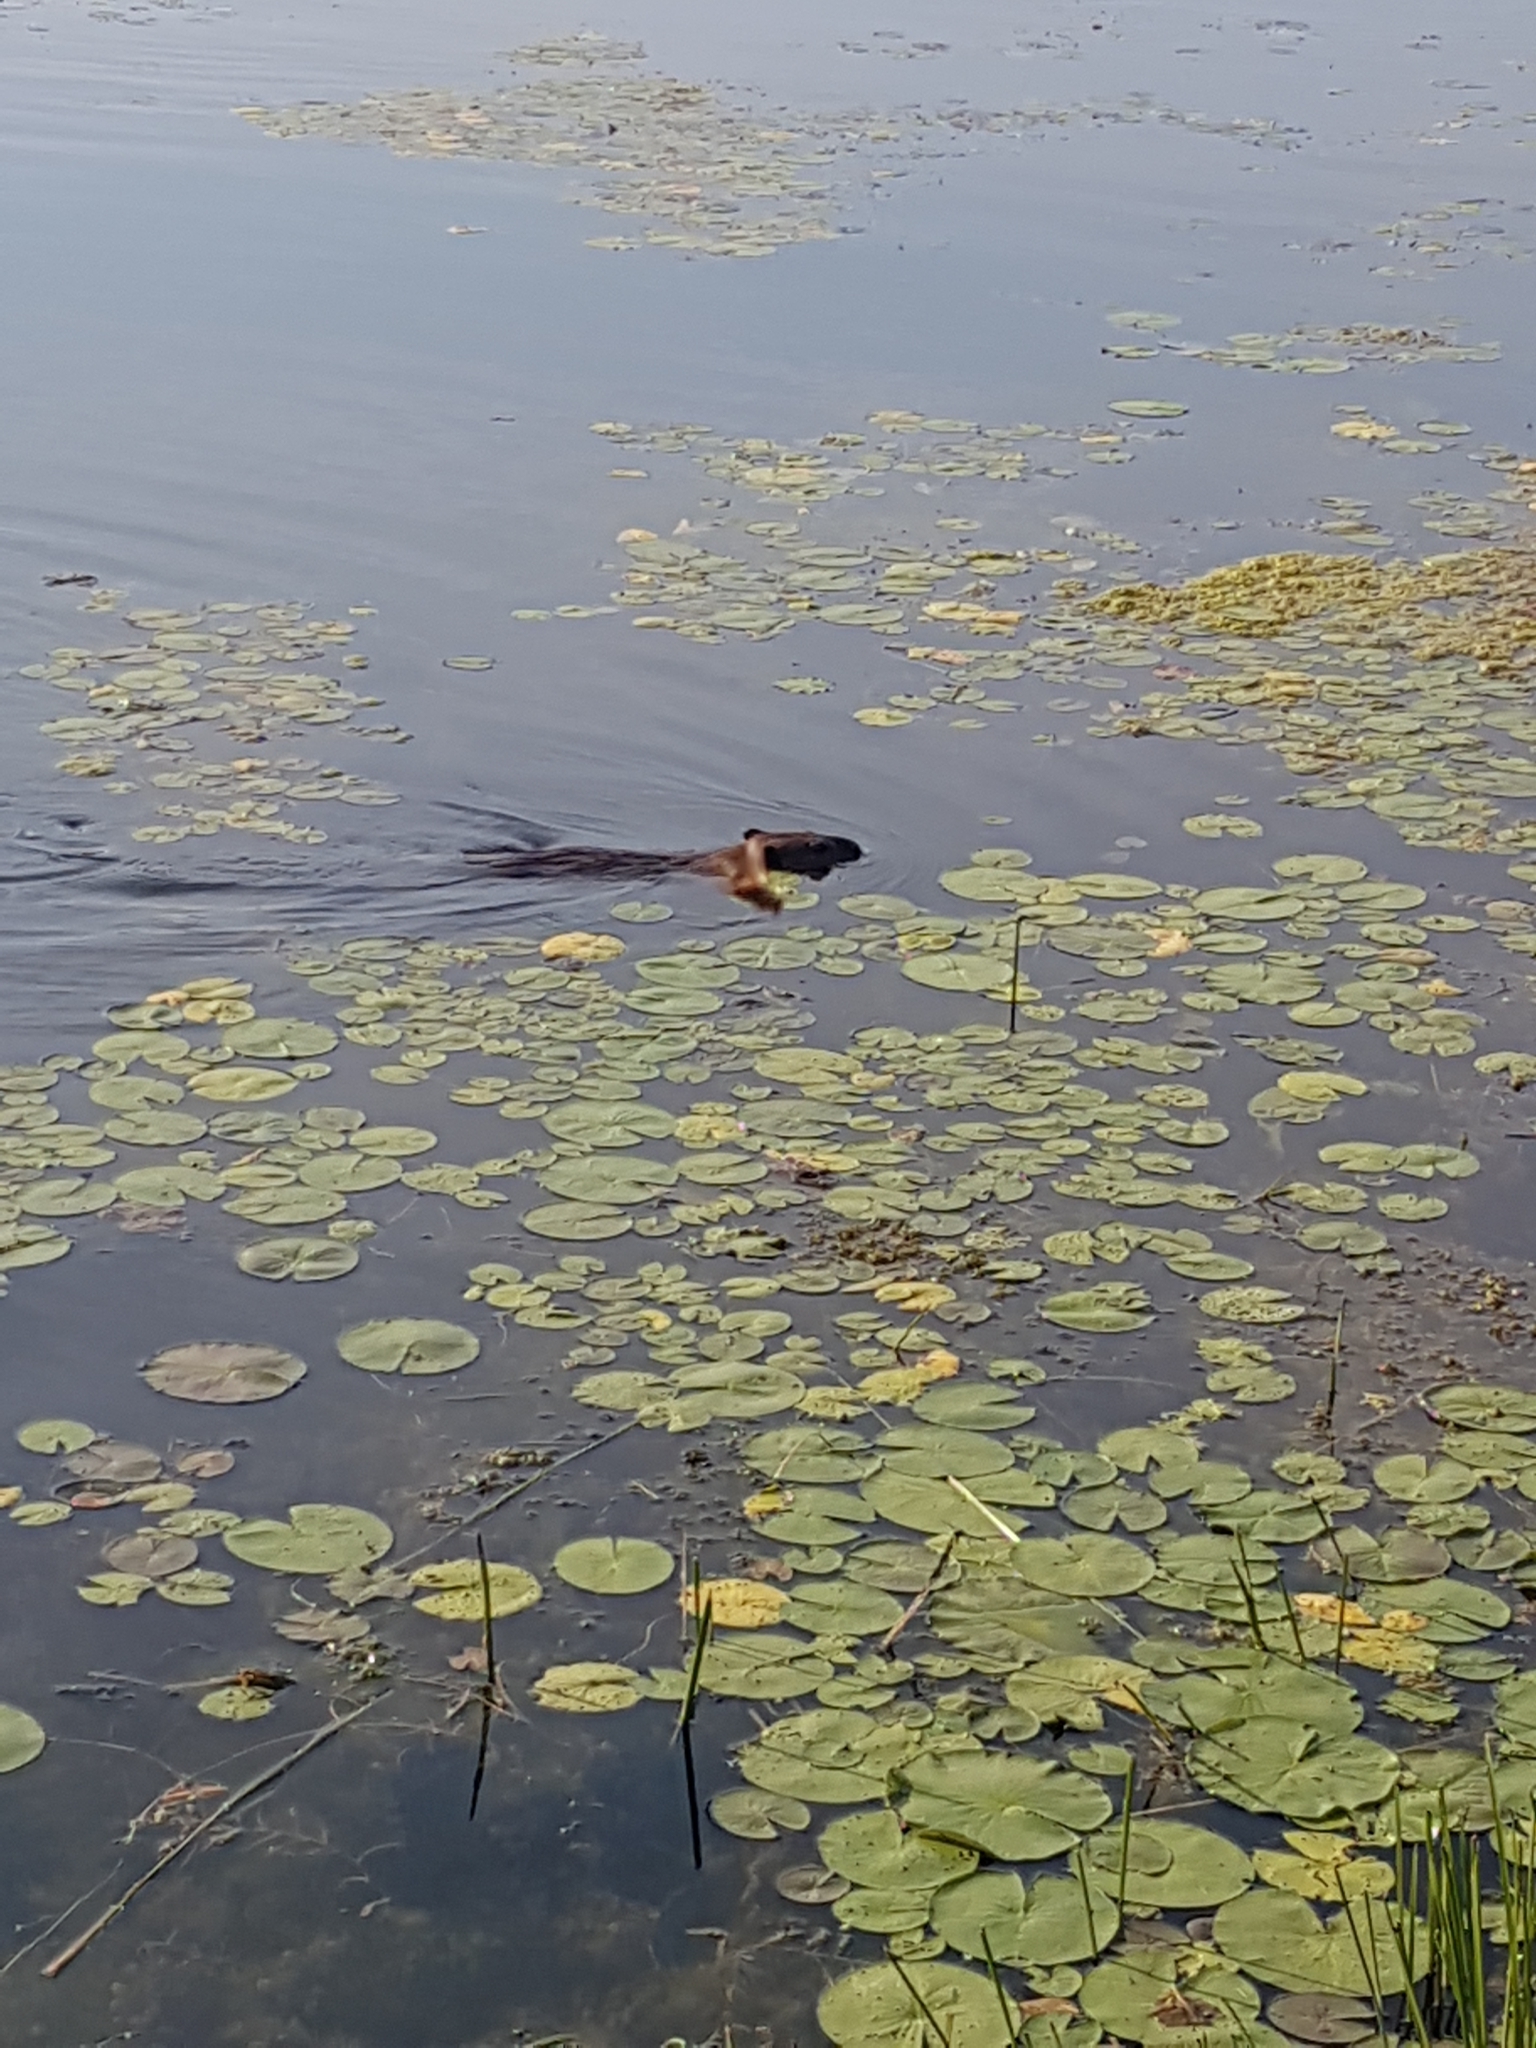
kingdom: Animalia
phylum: Chordata
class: Mammalia
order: Rodentia
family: Castoridae
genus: Castor
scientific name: Castor canadensis
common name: American beaver
